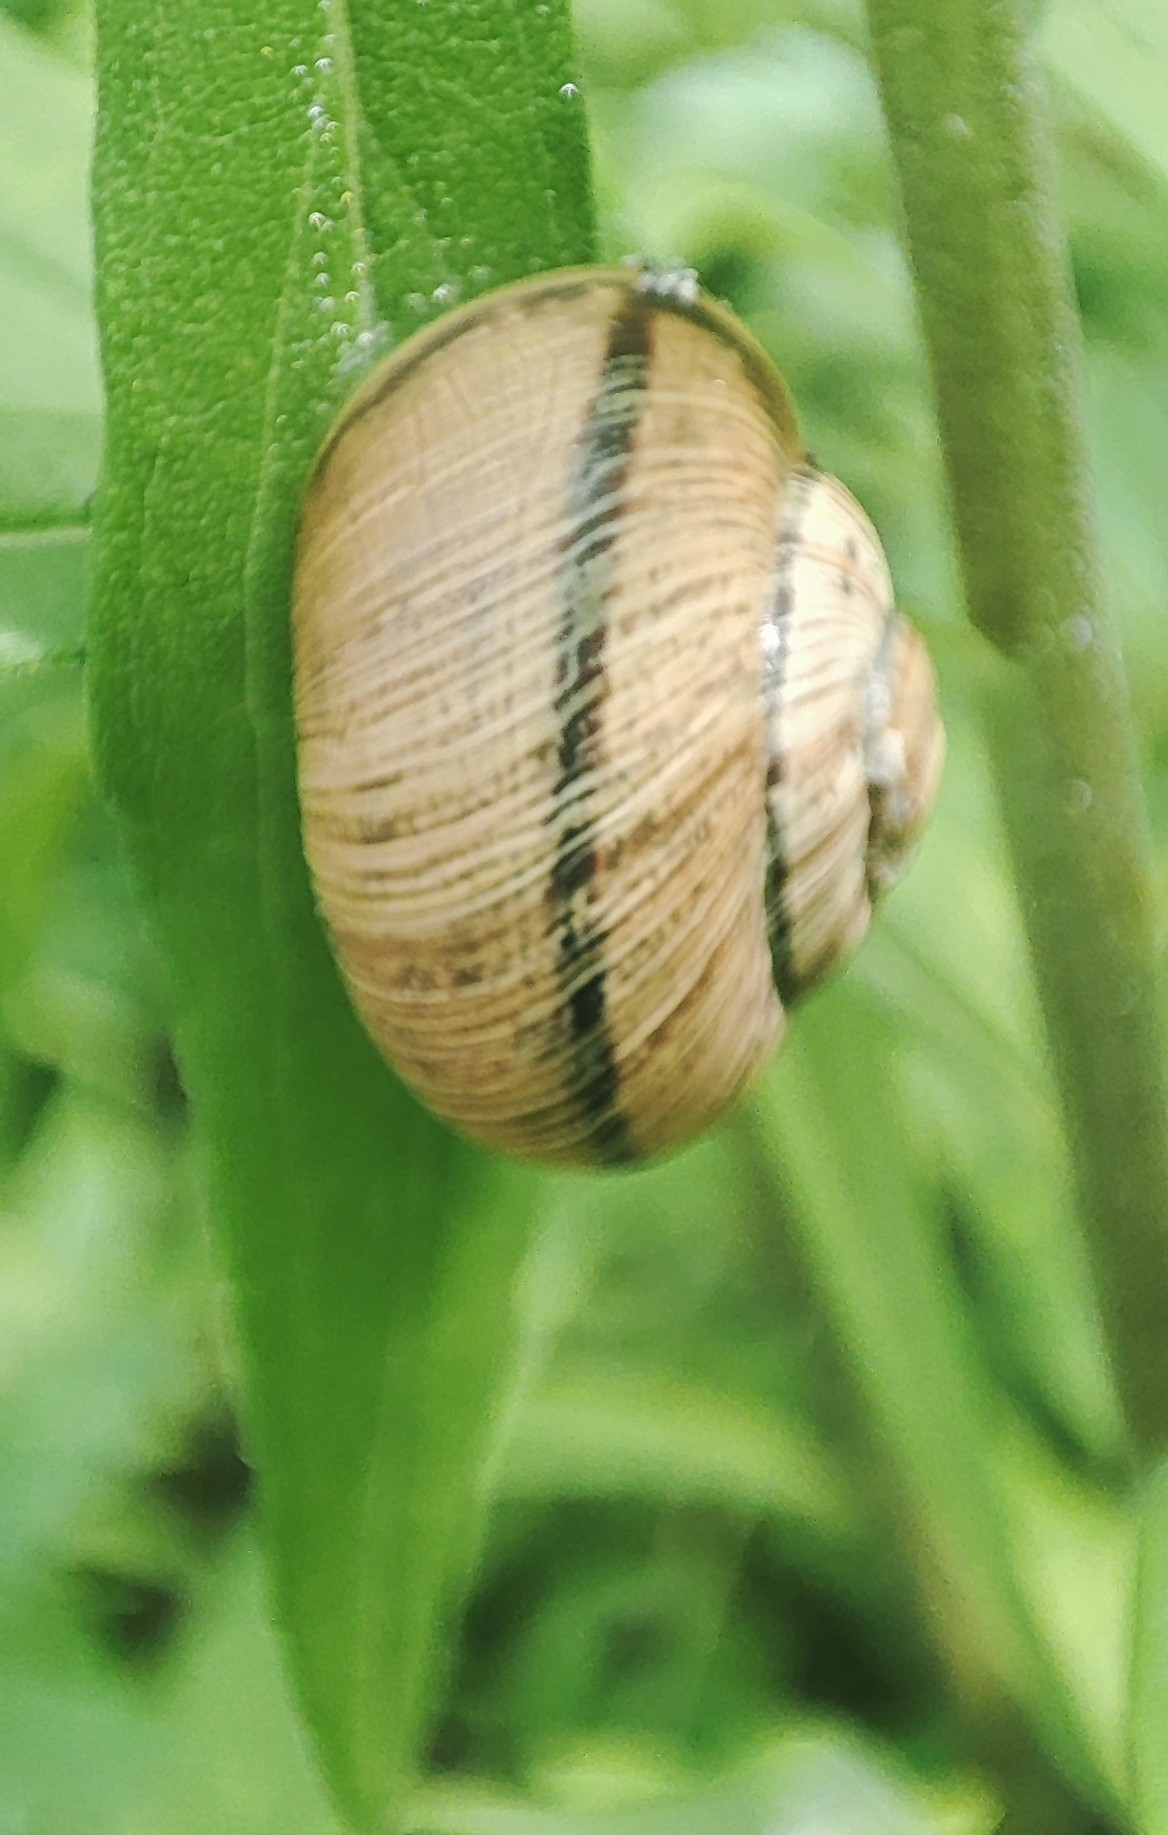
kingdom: Animalia
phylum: Mollusca
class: Gastropoda
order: Stylommatophora
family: Helicidae
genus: Caucasotachea
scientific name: Caucasotachea atrolabiata
